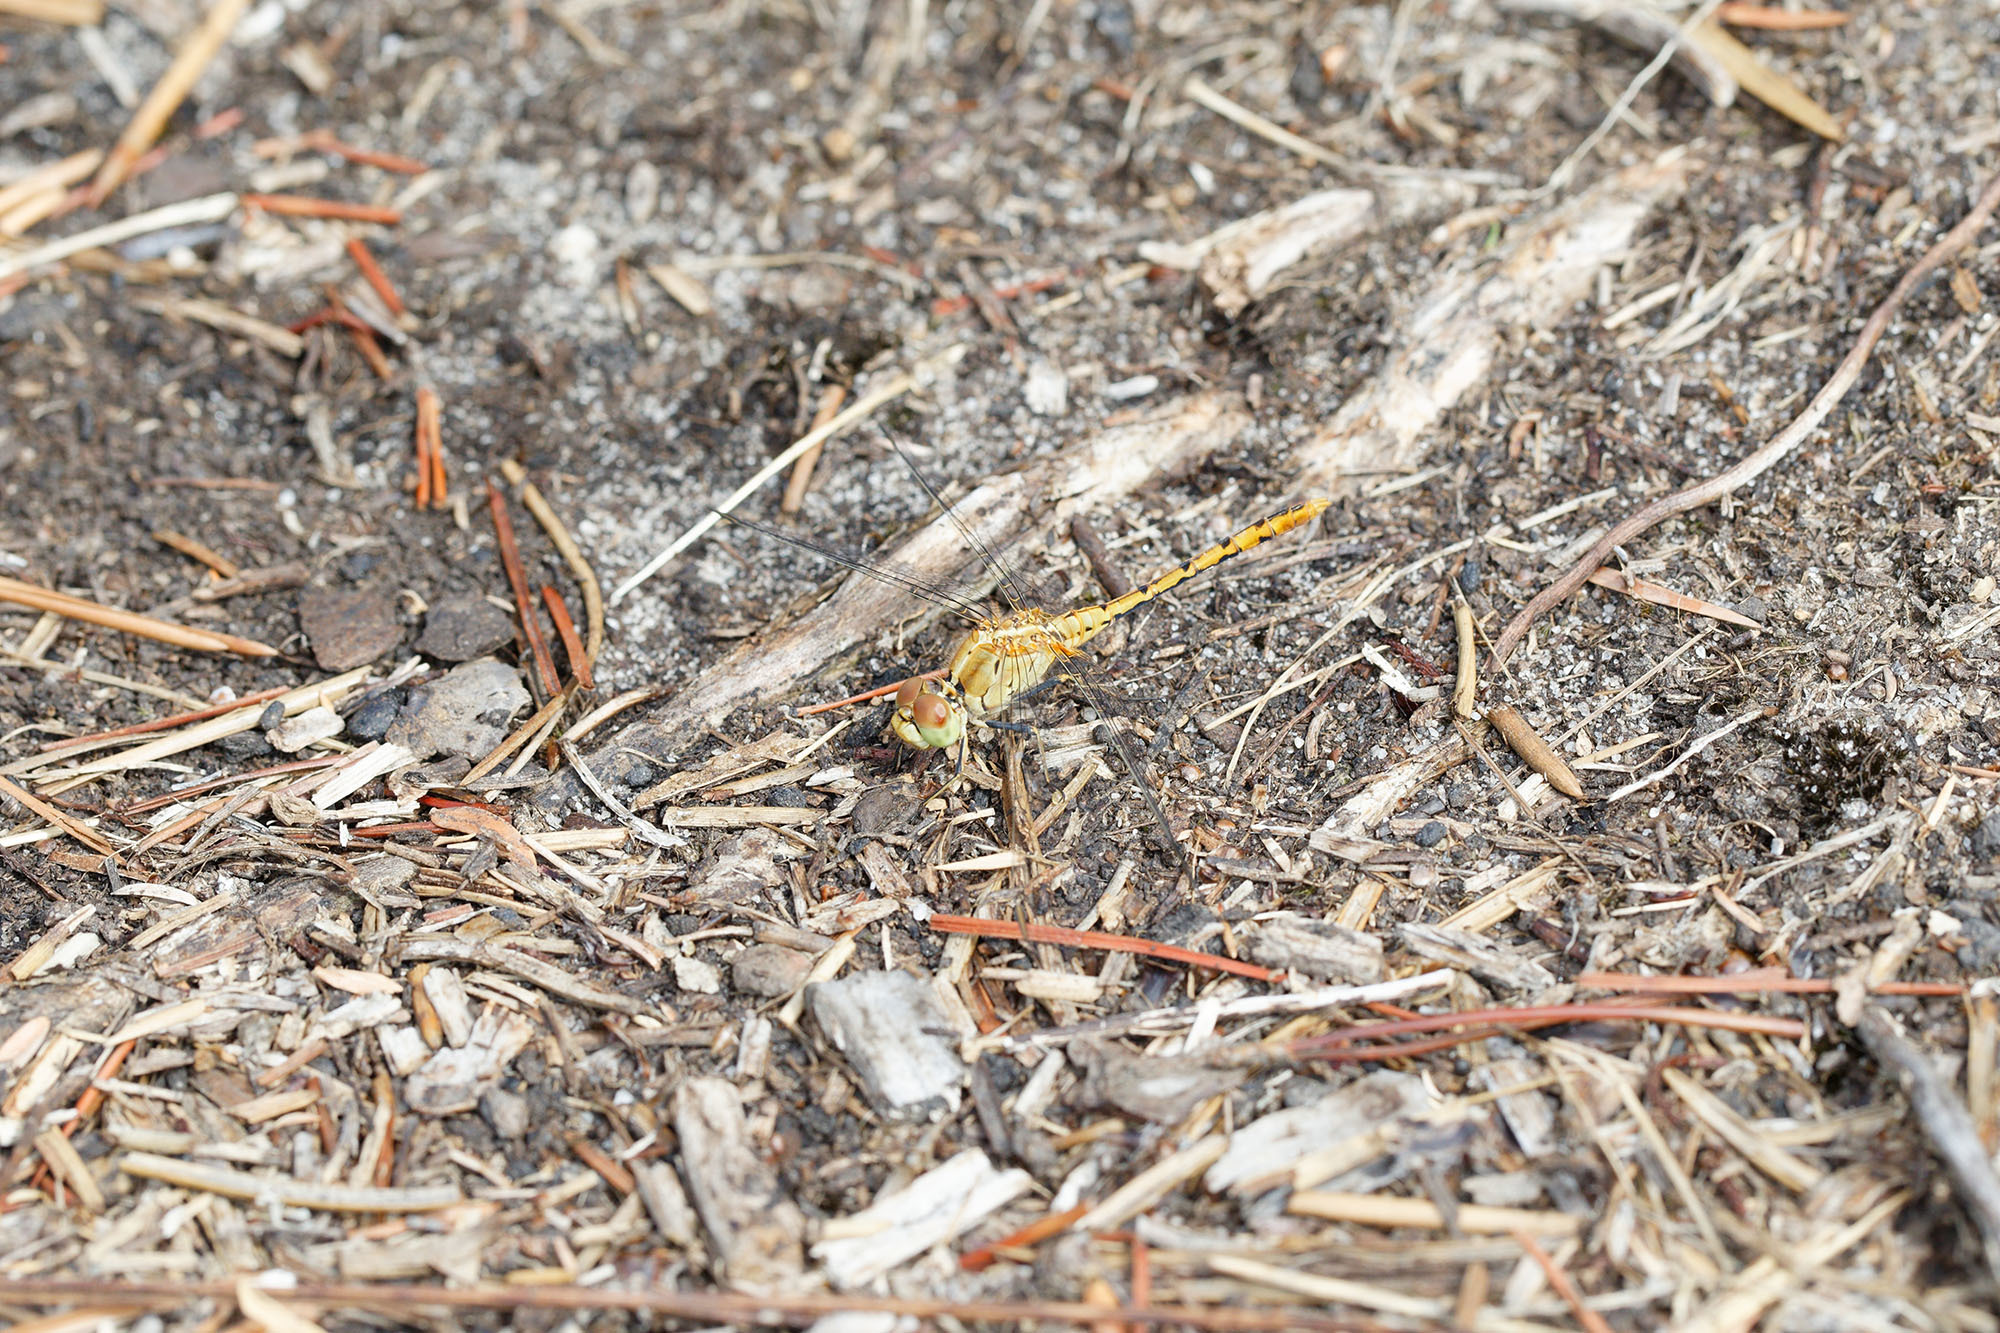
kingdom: Animalia
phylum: Arthropoda
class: Insecta
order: Odonata
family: Libellulidae
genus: Diplacodes
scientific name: Diplacodes bipunctata
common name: Red percher dragonfly
